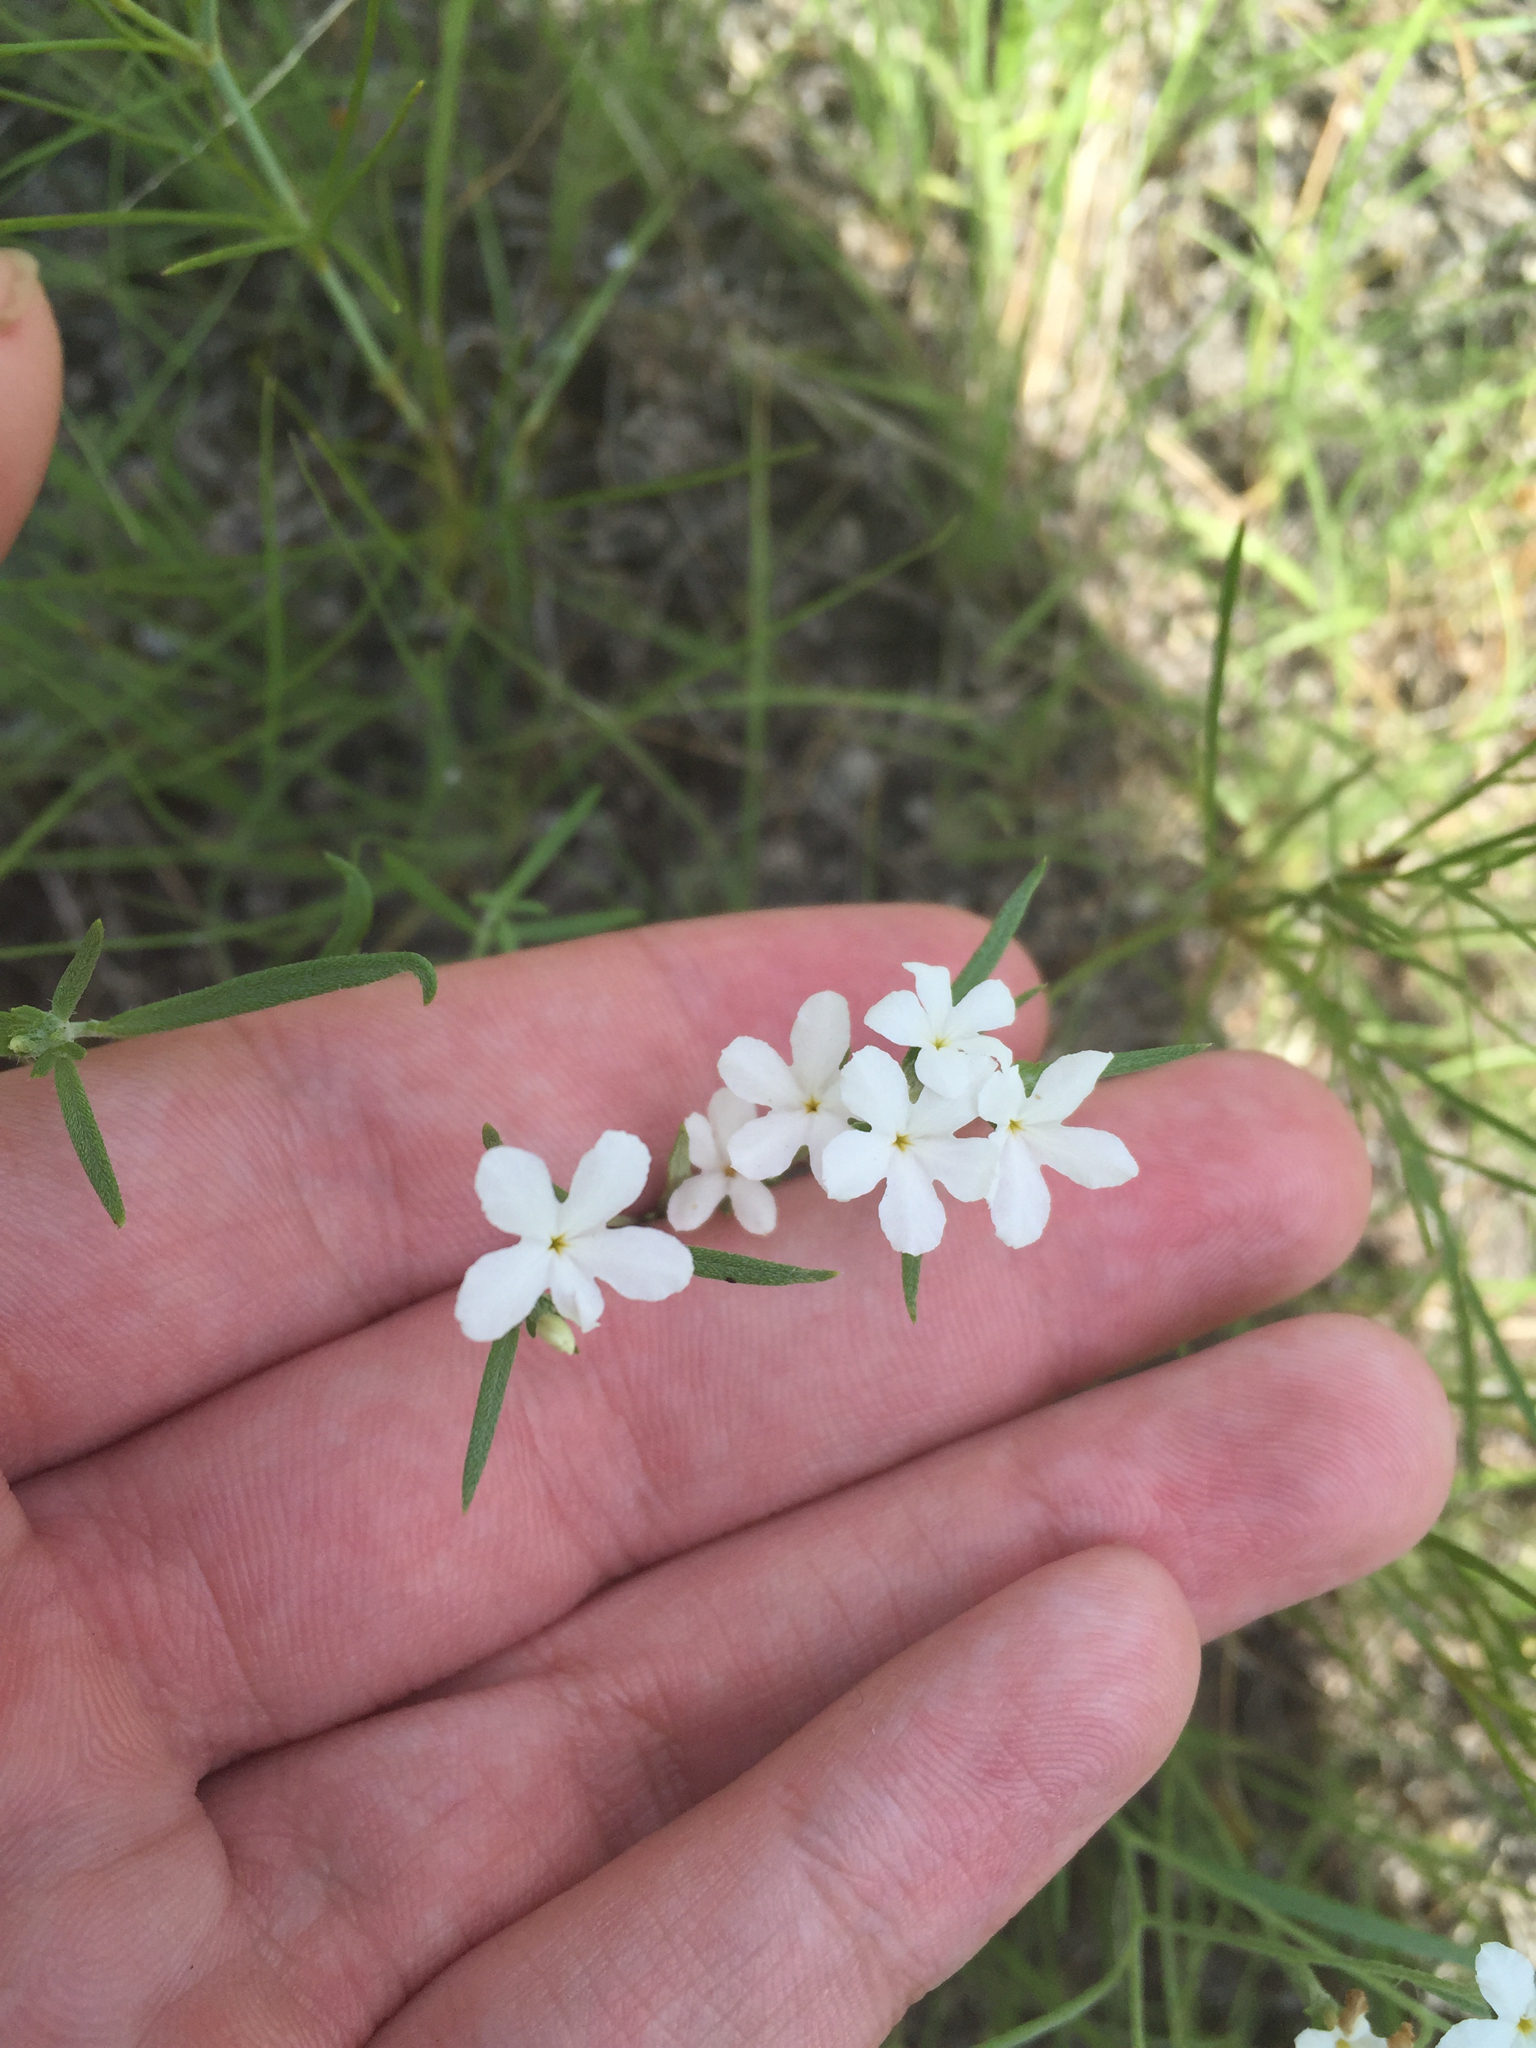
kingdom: Plantae
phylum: Tracheophyta
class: Magnoliopsida
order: Boraginales
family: Heliotropiaceae
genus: Euploca
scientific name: Euploca tenella
